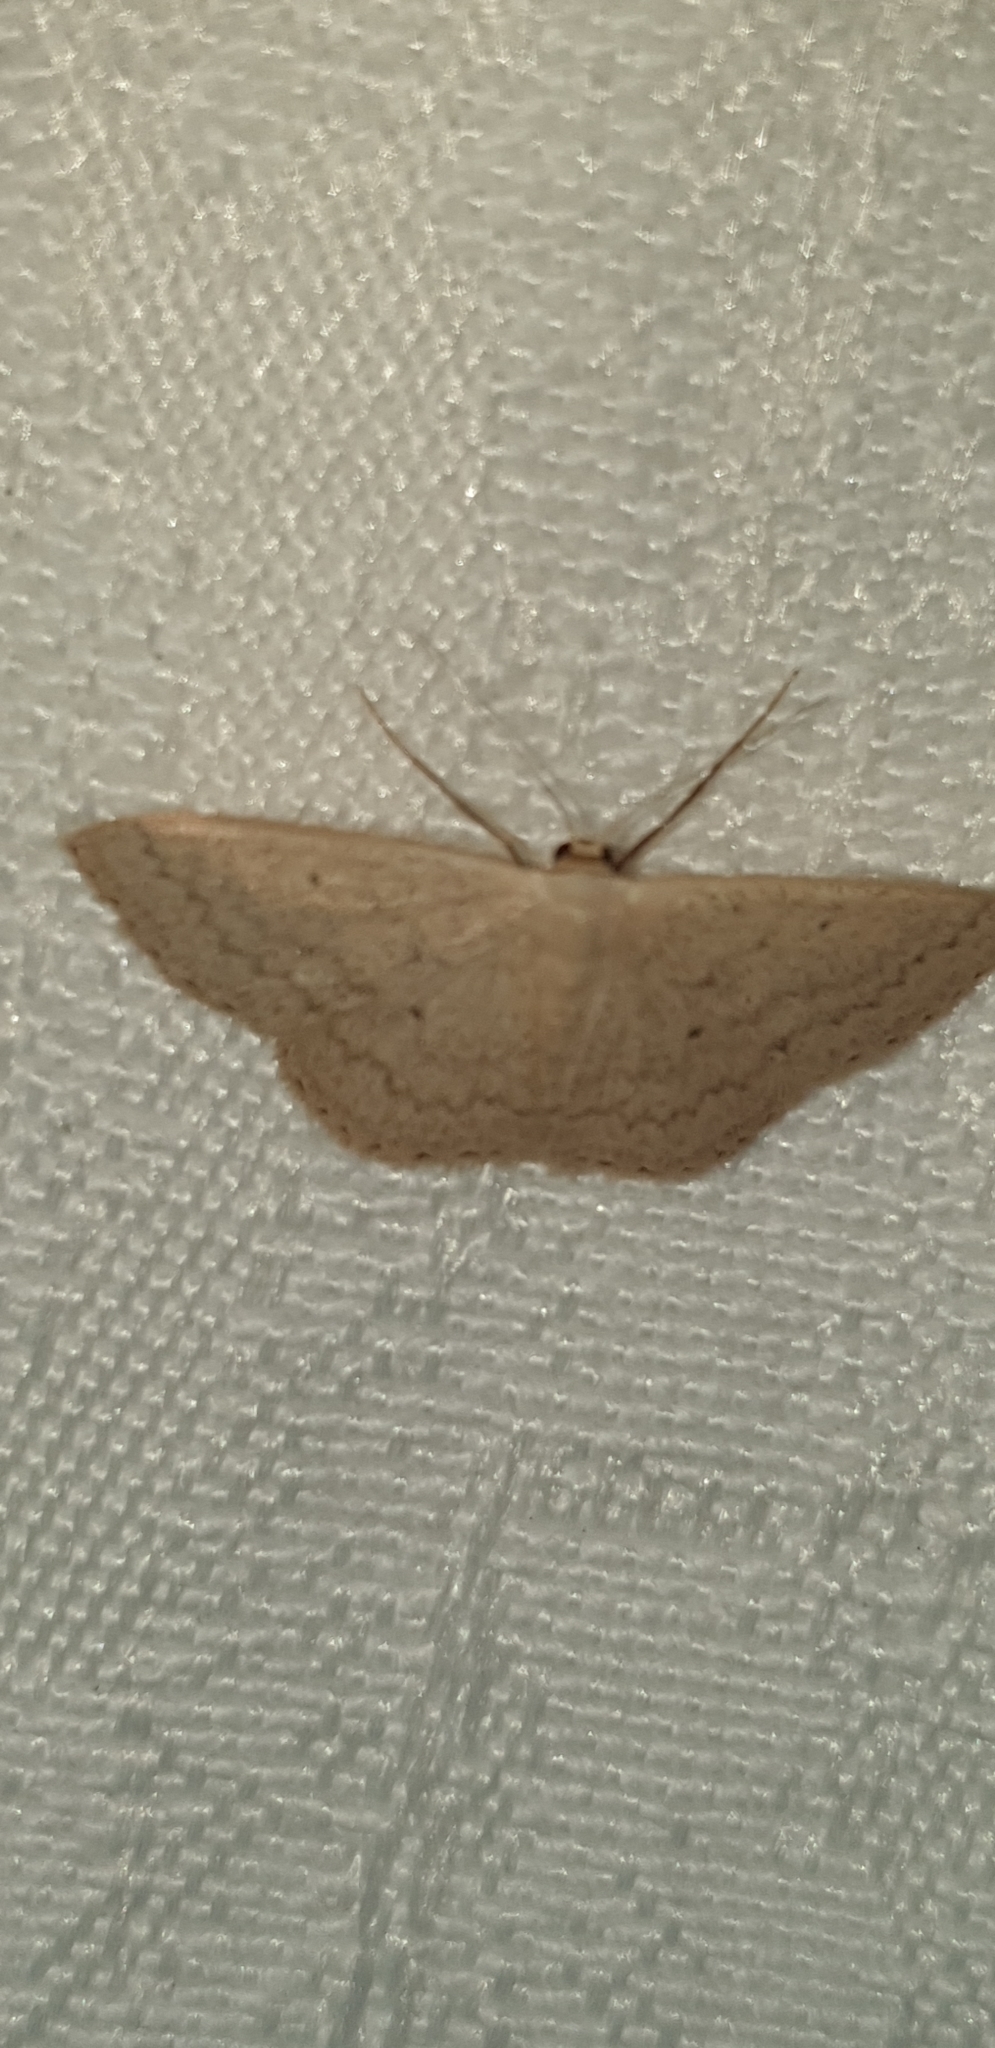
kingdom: Animalia
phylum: Arthropoda
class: Insecta
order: Lepidoptera
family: Geometridae
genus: Scopula
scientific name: Scopula optivata
